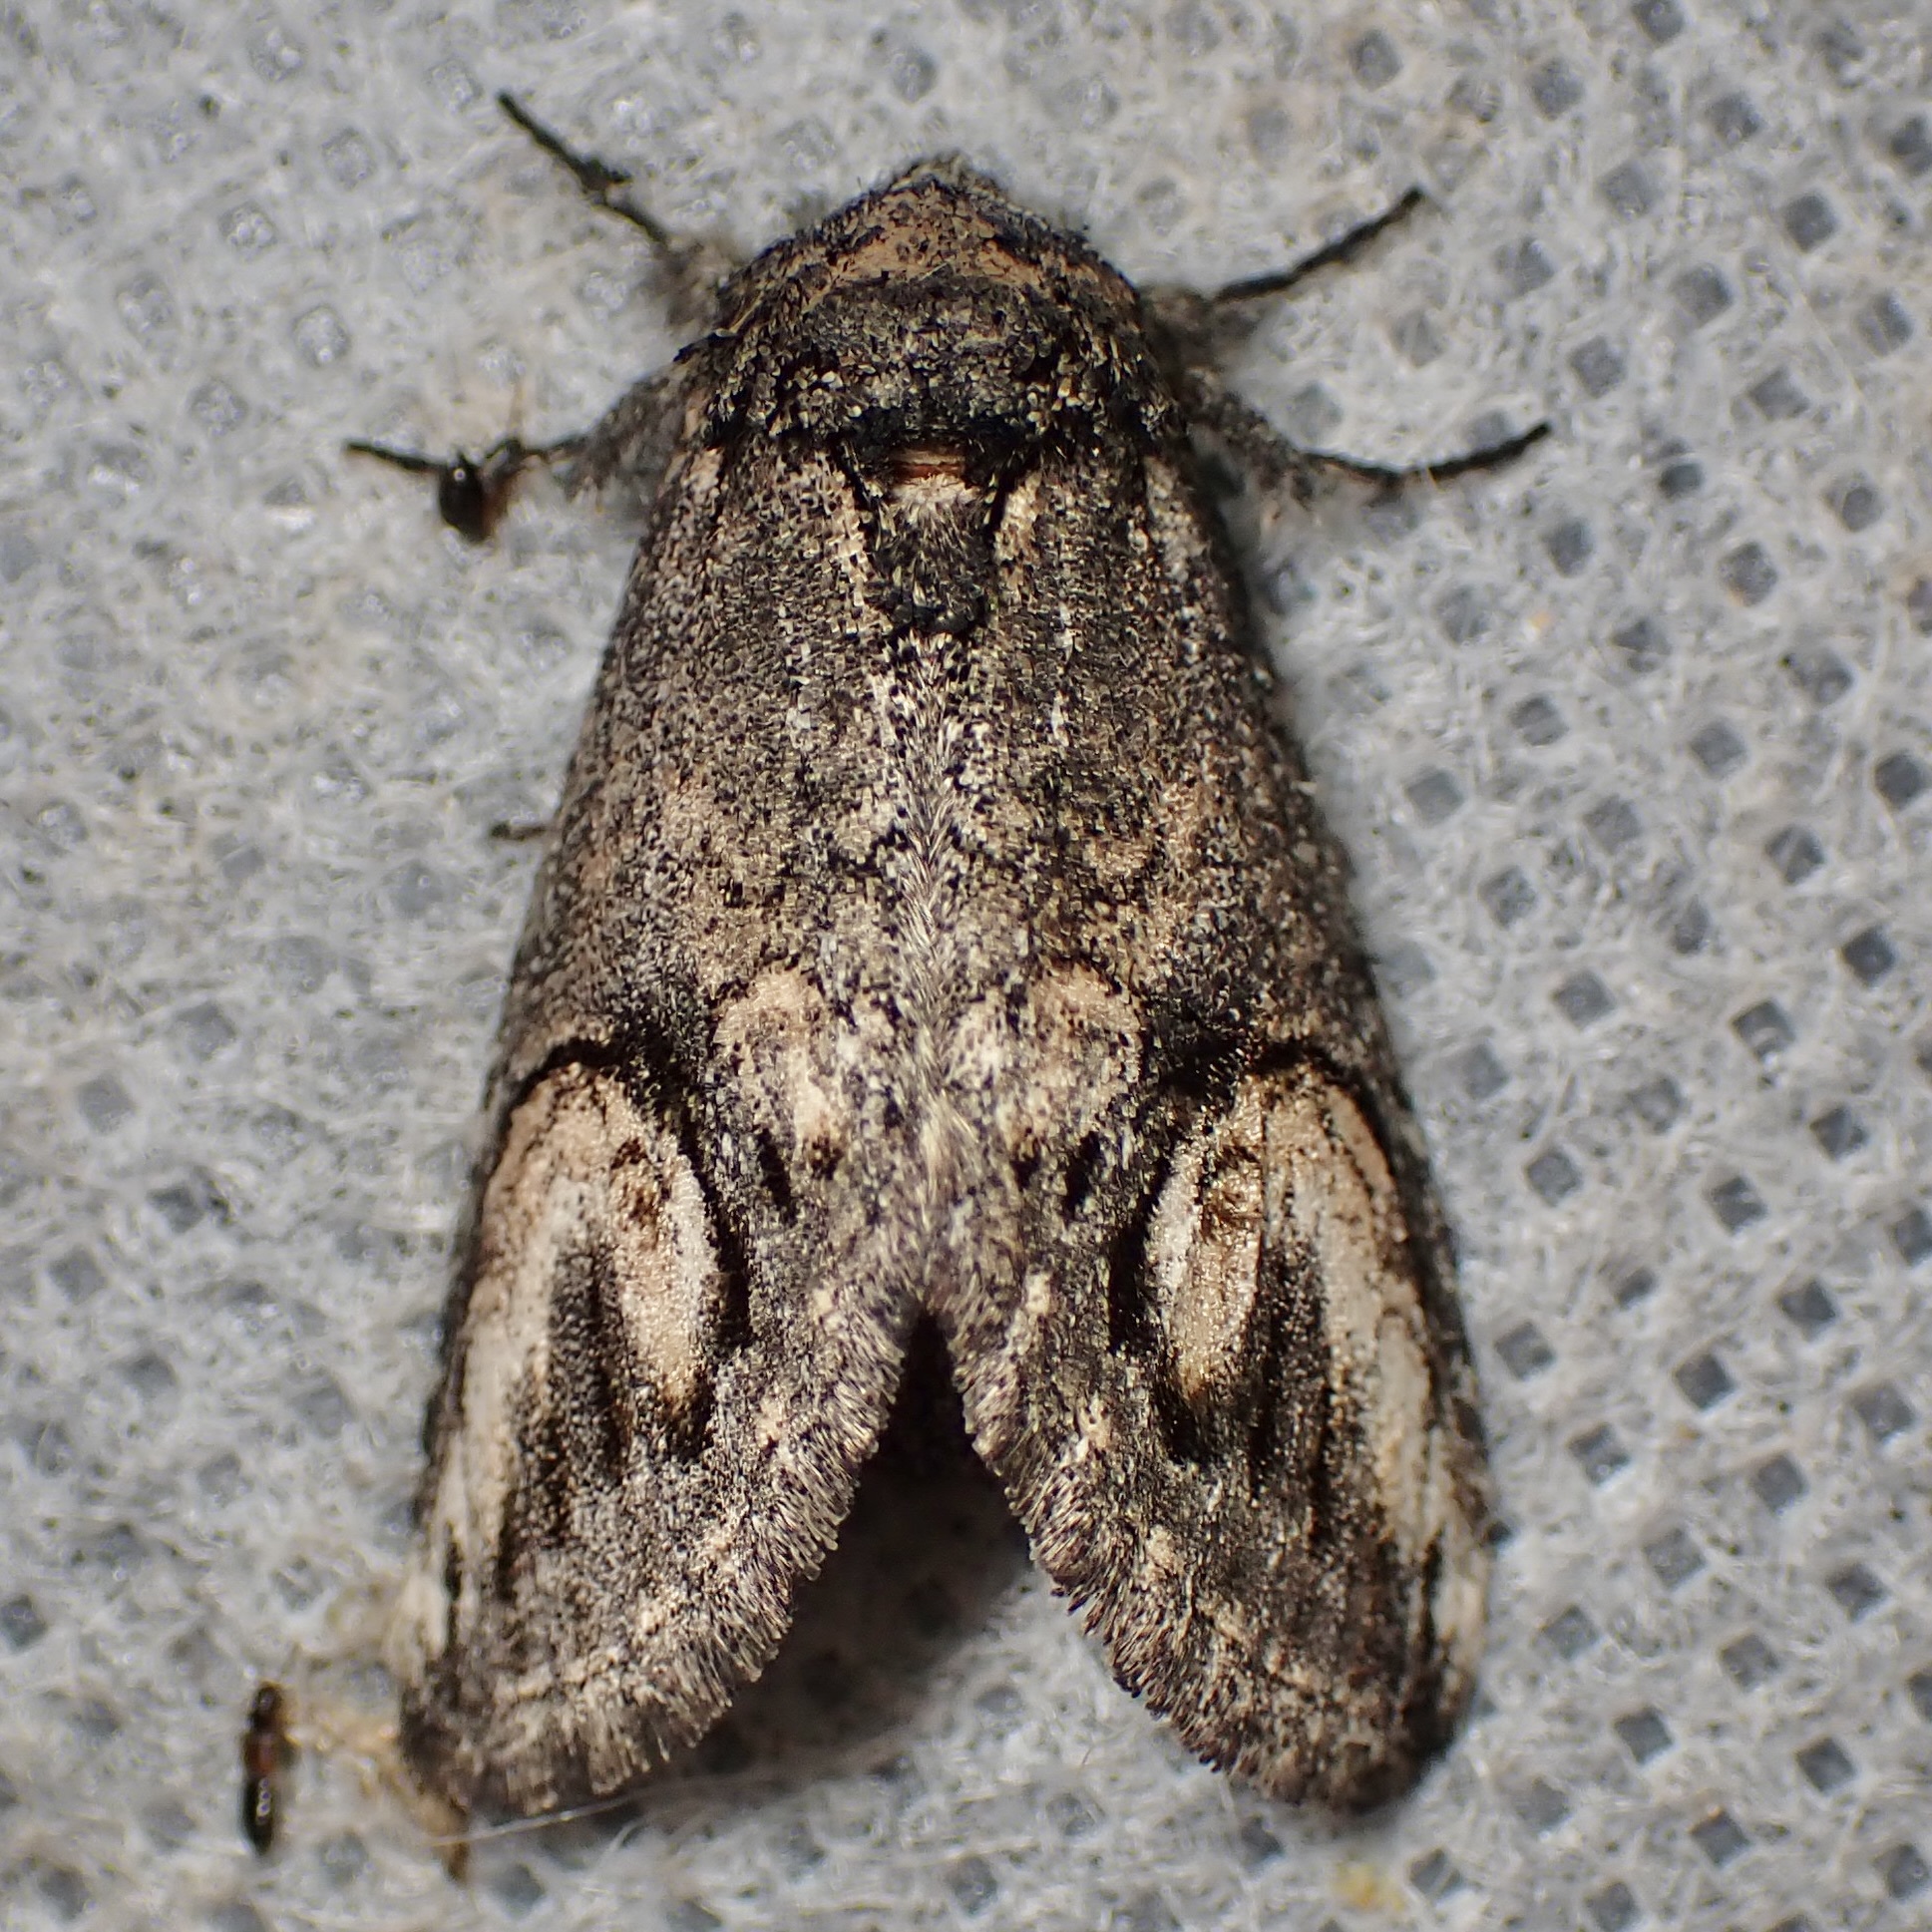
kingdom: Animalia
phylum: Arthropoda
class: Insecta
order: Lepidoptera
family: Notodontidae
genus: Rifargia
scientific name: Rifargia
